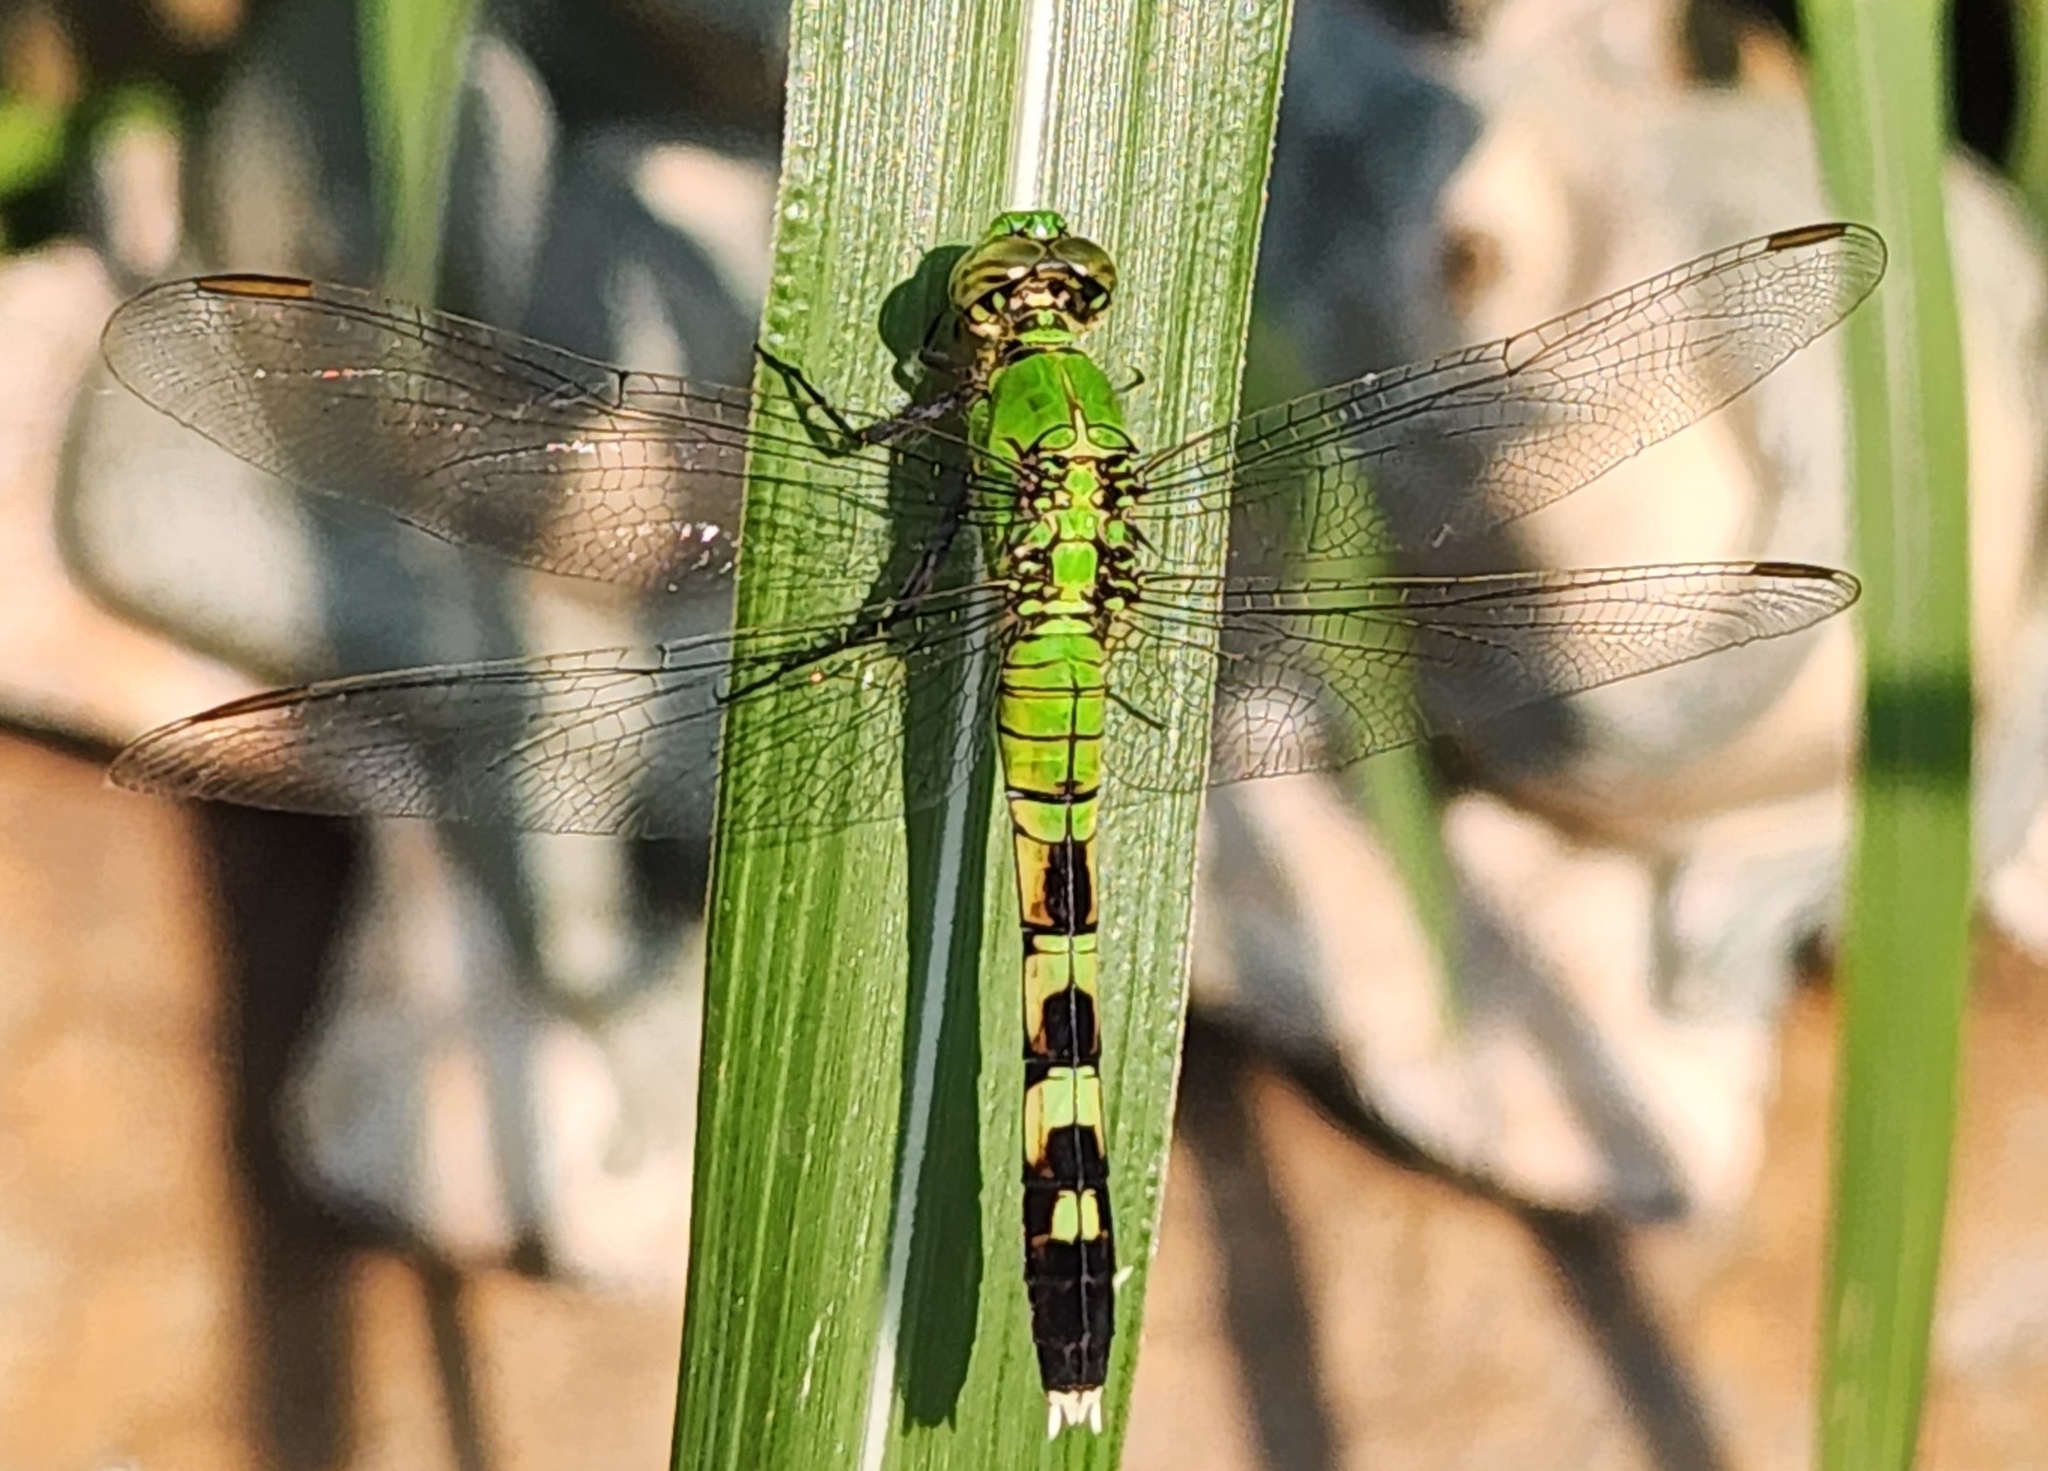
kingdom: Animalia
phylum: Arthropoda
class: Insecta
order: Odonata
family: Libellulidae
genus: Erythemis
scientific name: Erythemis simplicicollis
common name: Eastern pondhawk
